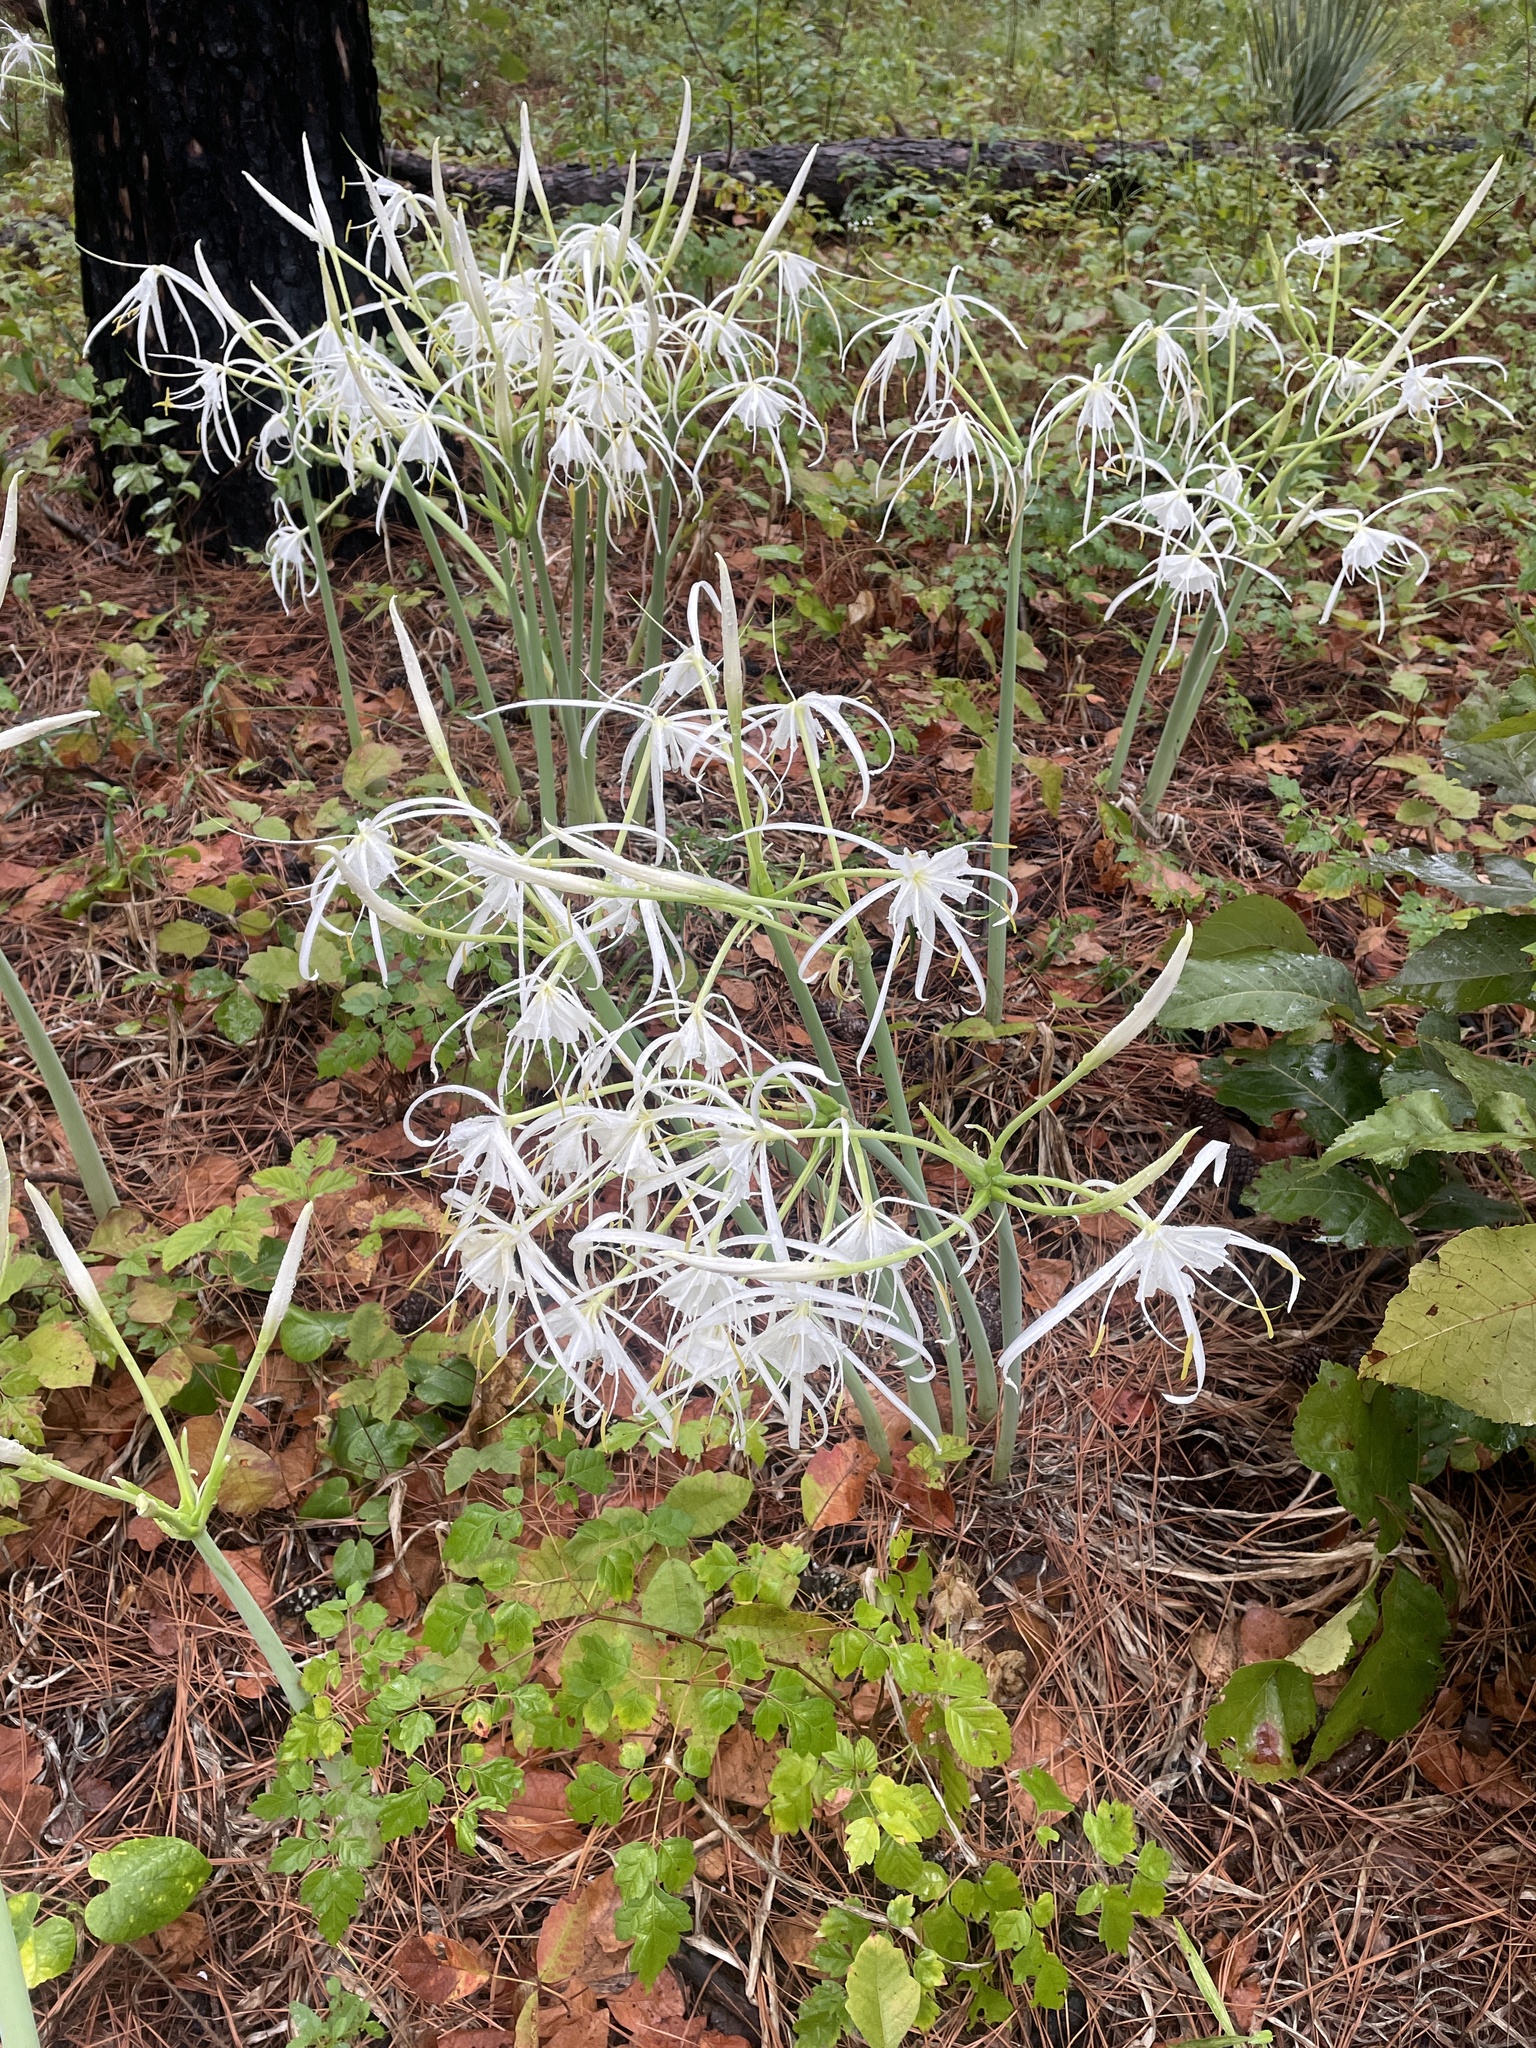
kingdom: Plantae
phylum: Tracheophyta
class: Liliopsida
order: Asparagales
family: Amaryllidaceae
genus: Hymenocallis
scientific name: Hymenocallis occidentalis
